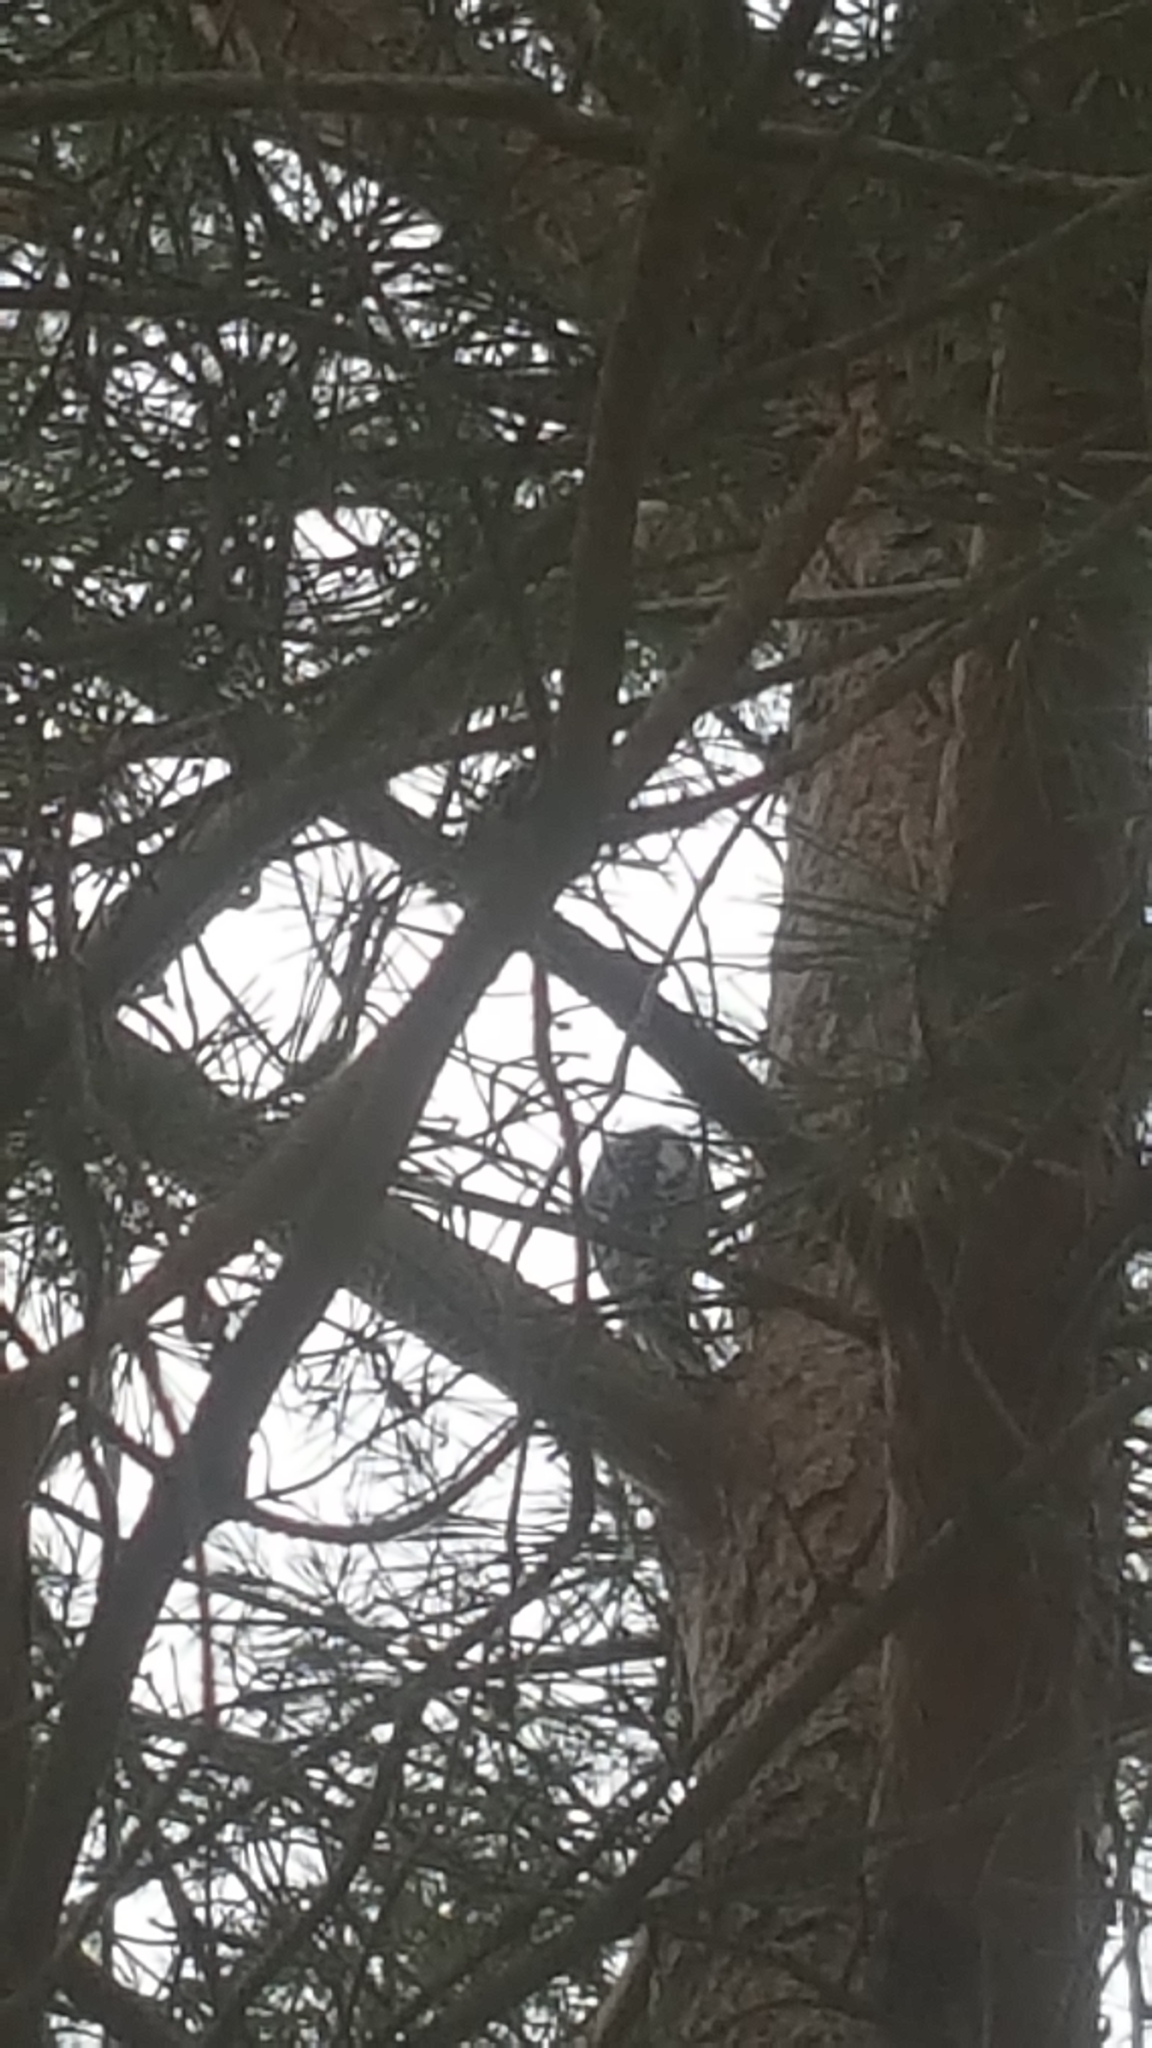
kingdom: Animalia
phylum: Chordata
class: Aves
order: Piciformes
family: Picidae
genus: Sphyrapicus
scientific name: Sphyrapicus varius
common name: Yellow-bellied sapsucker
